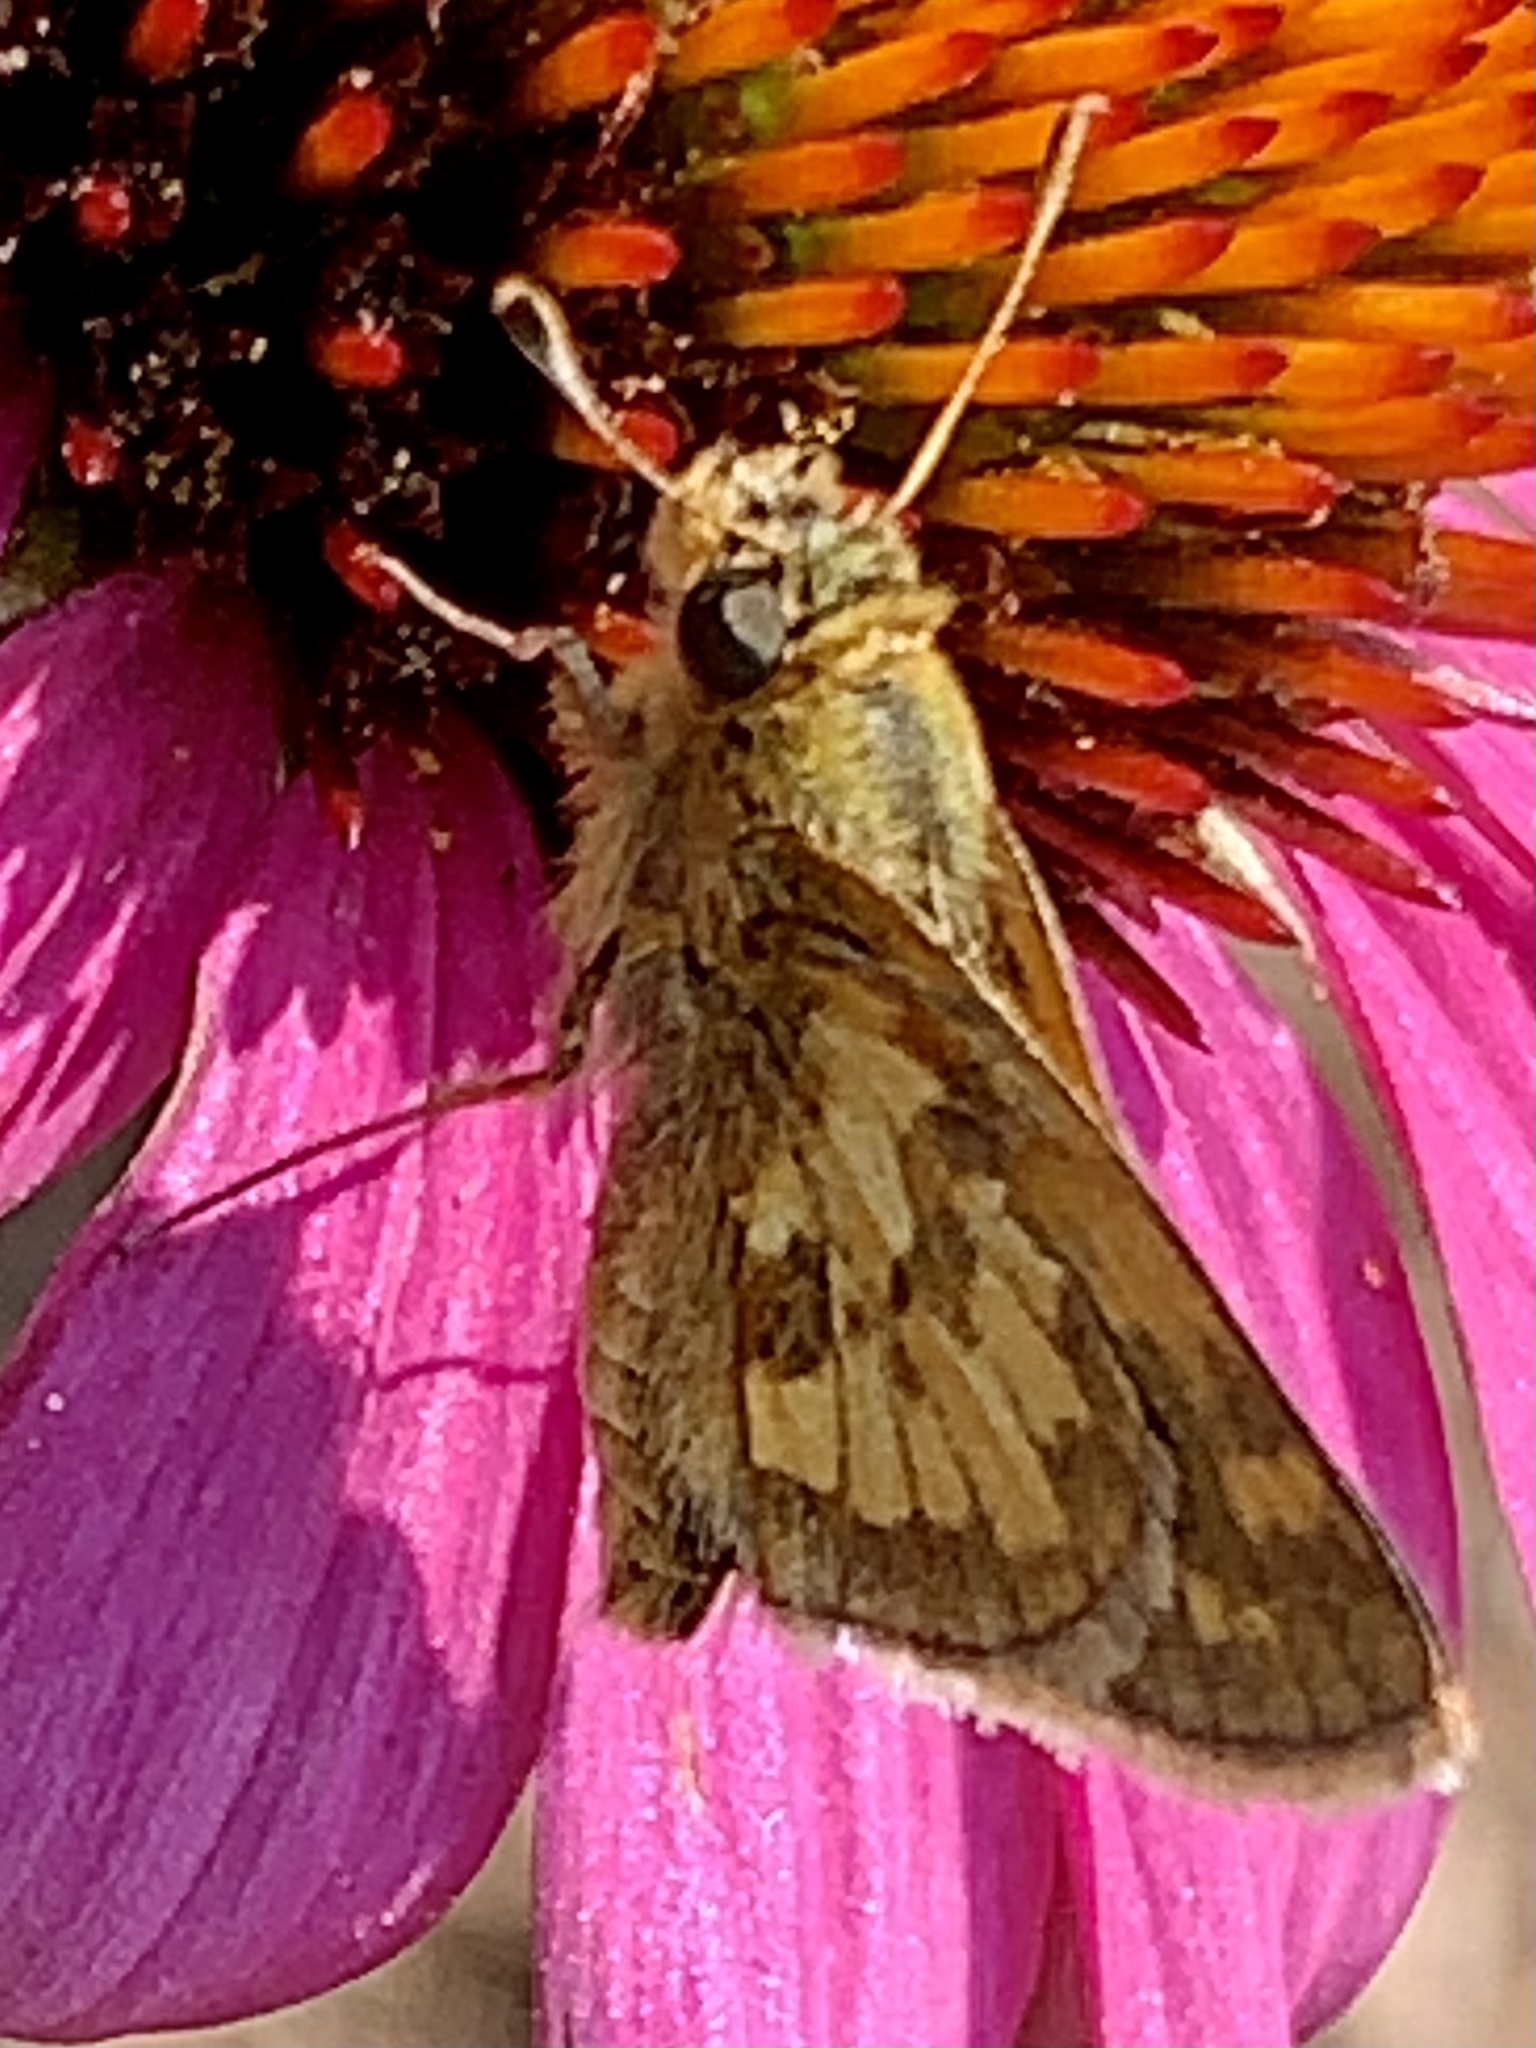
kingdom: Animalia
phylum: Arthropoda
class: Insecta
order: Lepidoptera
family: Hesperiidae
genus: Polites
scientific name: Polites coras
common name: Peck's skipper
